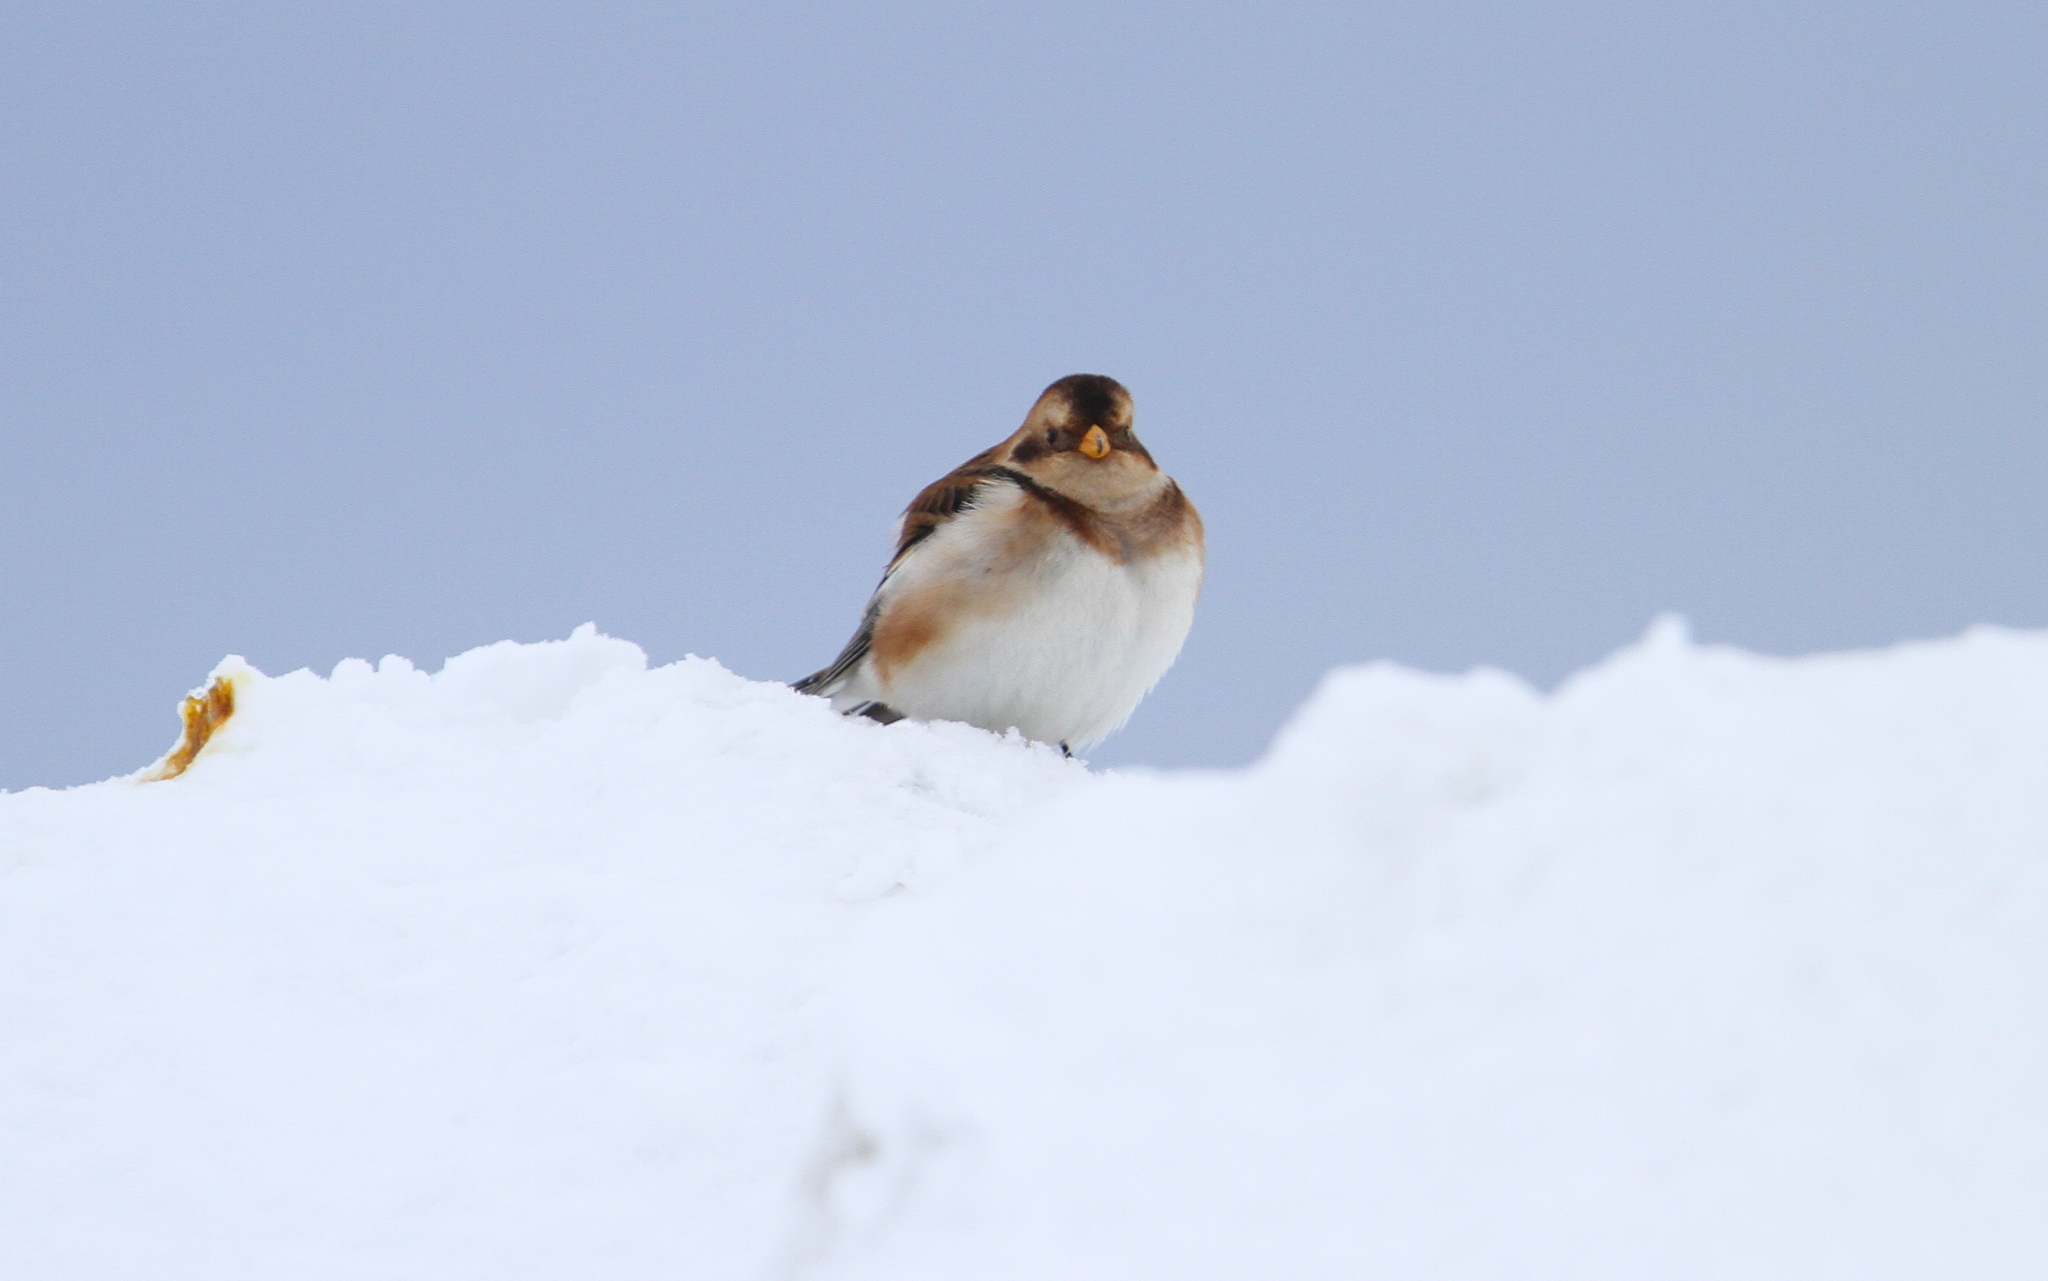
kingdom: Animalia
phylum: Chordata
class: Aves
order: Passeriformes
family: Calcariidae
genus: Plectrophenax
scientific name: Plectrophenax nivalis
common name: Snow bunting
